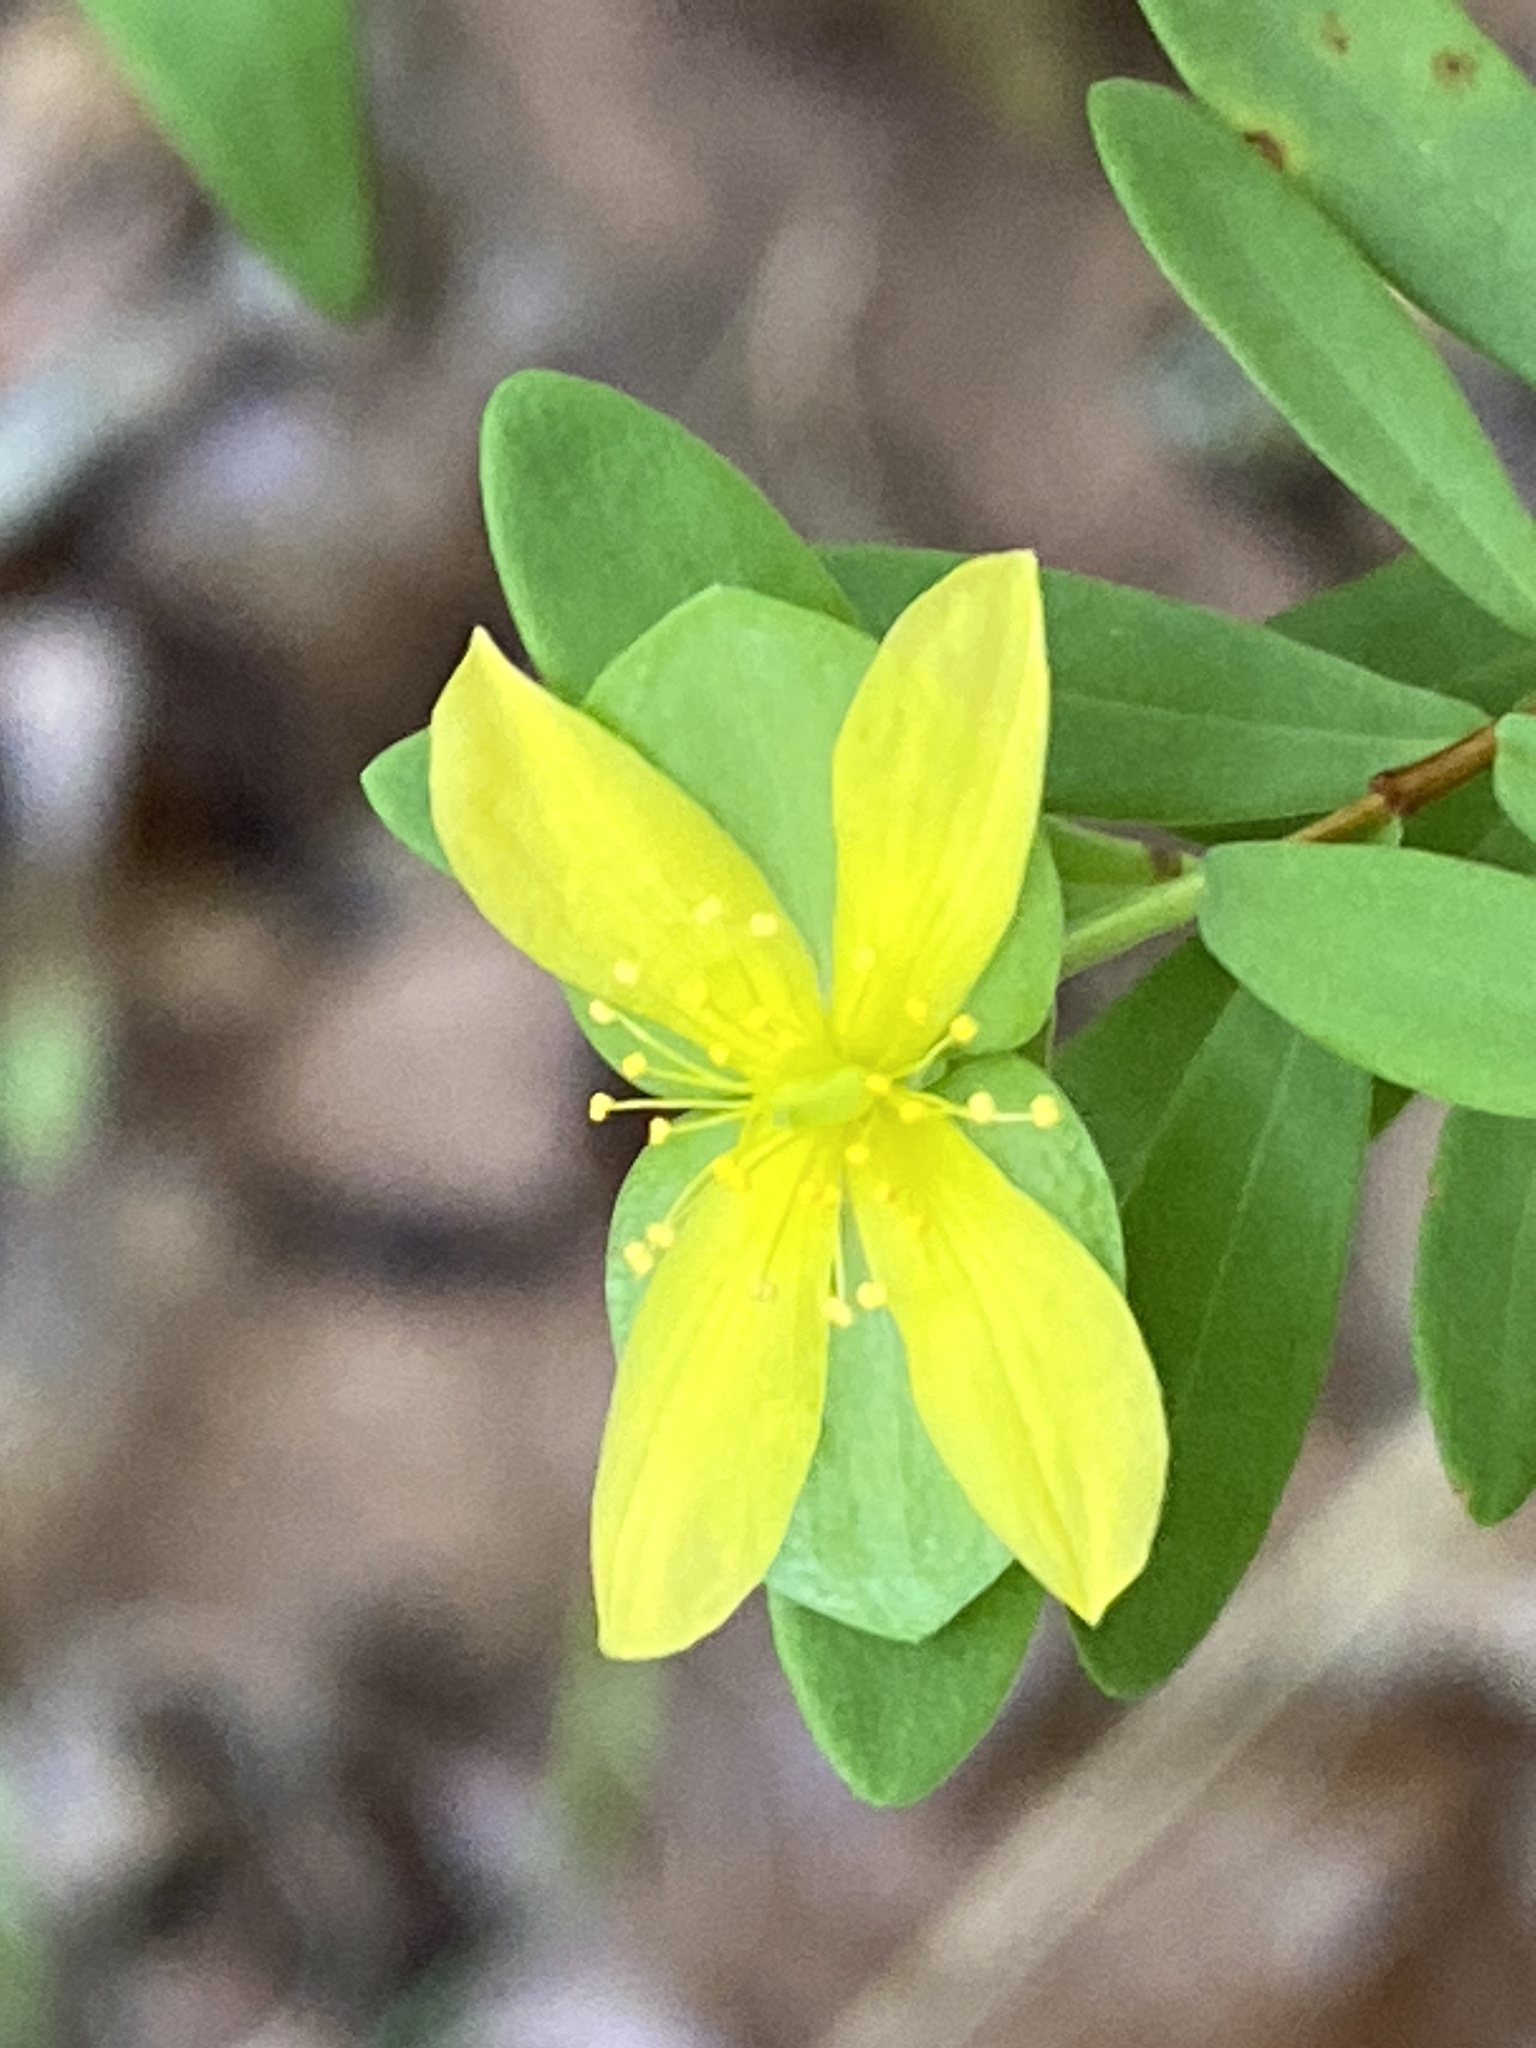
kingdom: Plantae
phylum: Tracheophyta
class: Magnoliopsida
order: Malpighiales
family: Hypericaceae
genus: Hypericum
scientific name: Hypericum hypericoides
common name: St. andrew's cross
